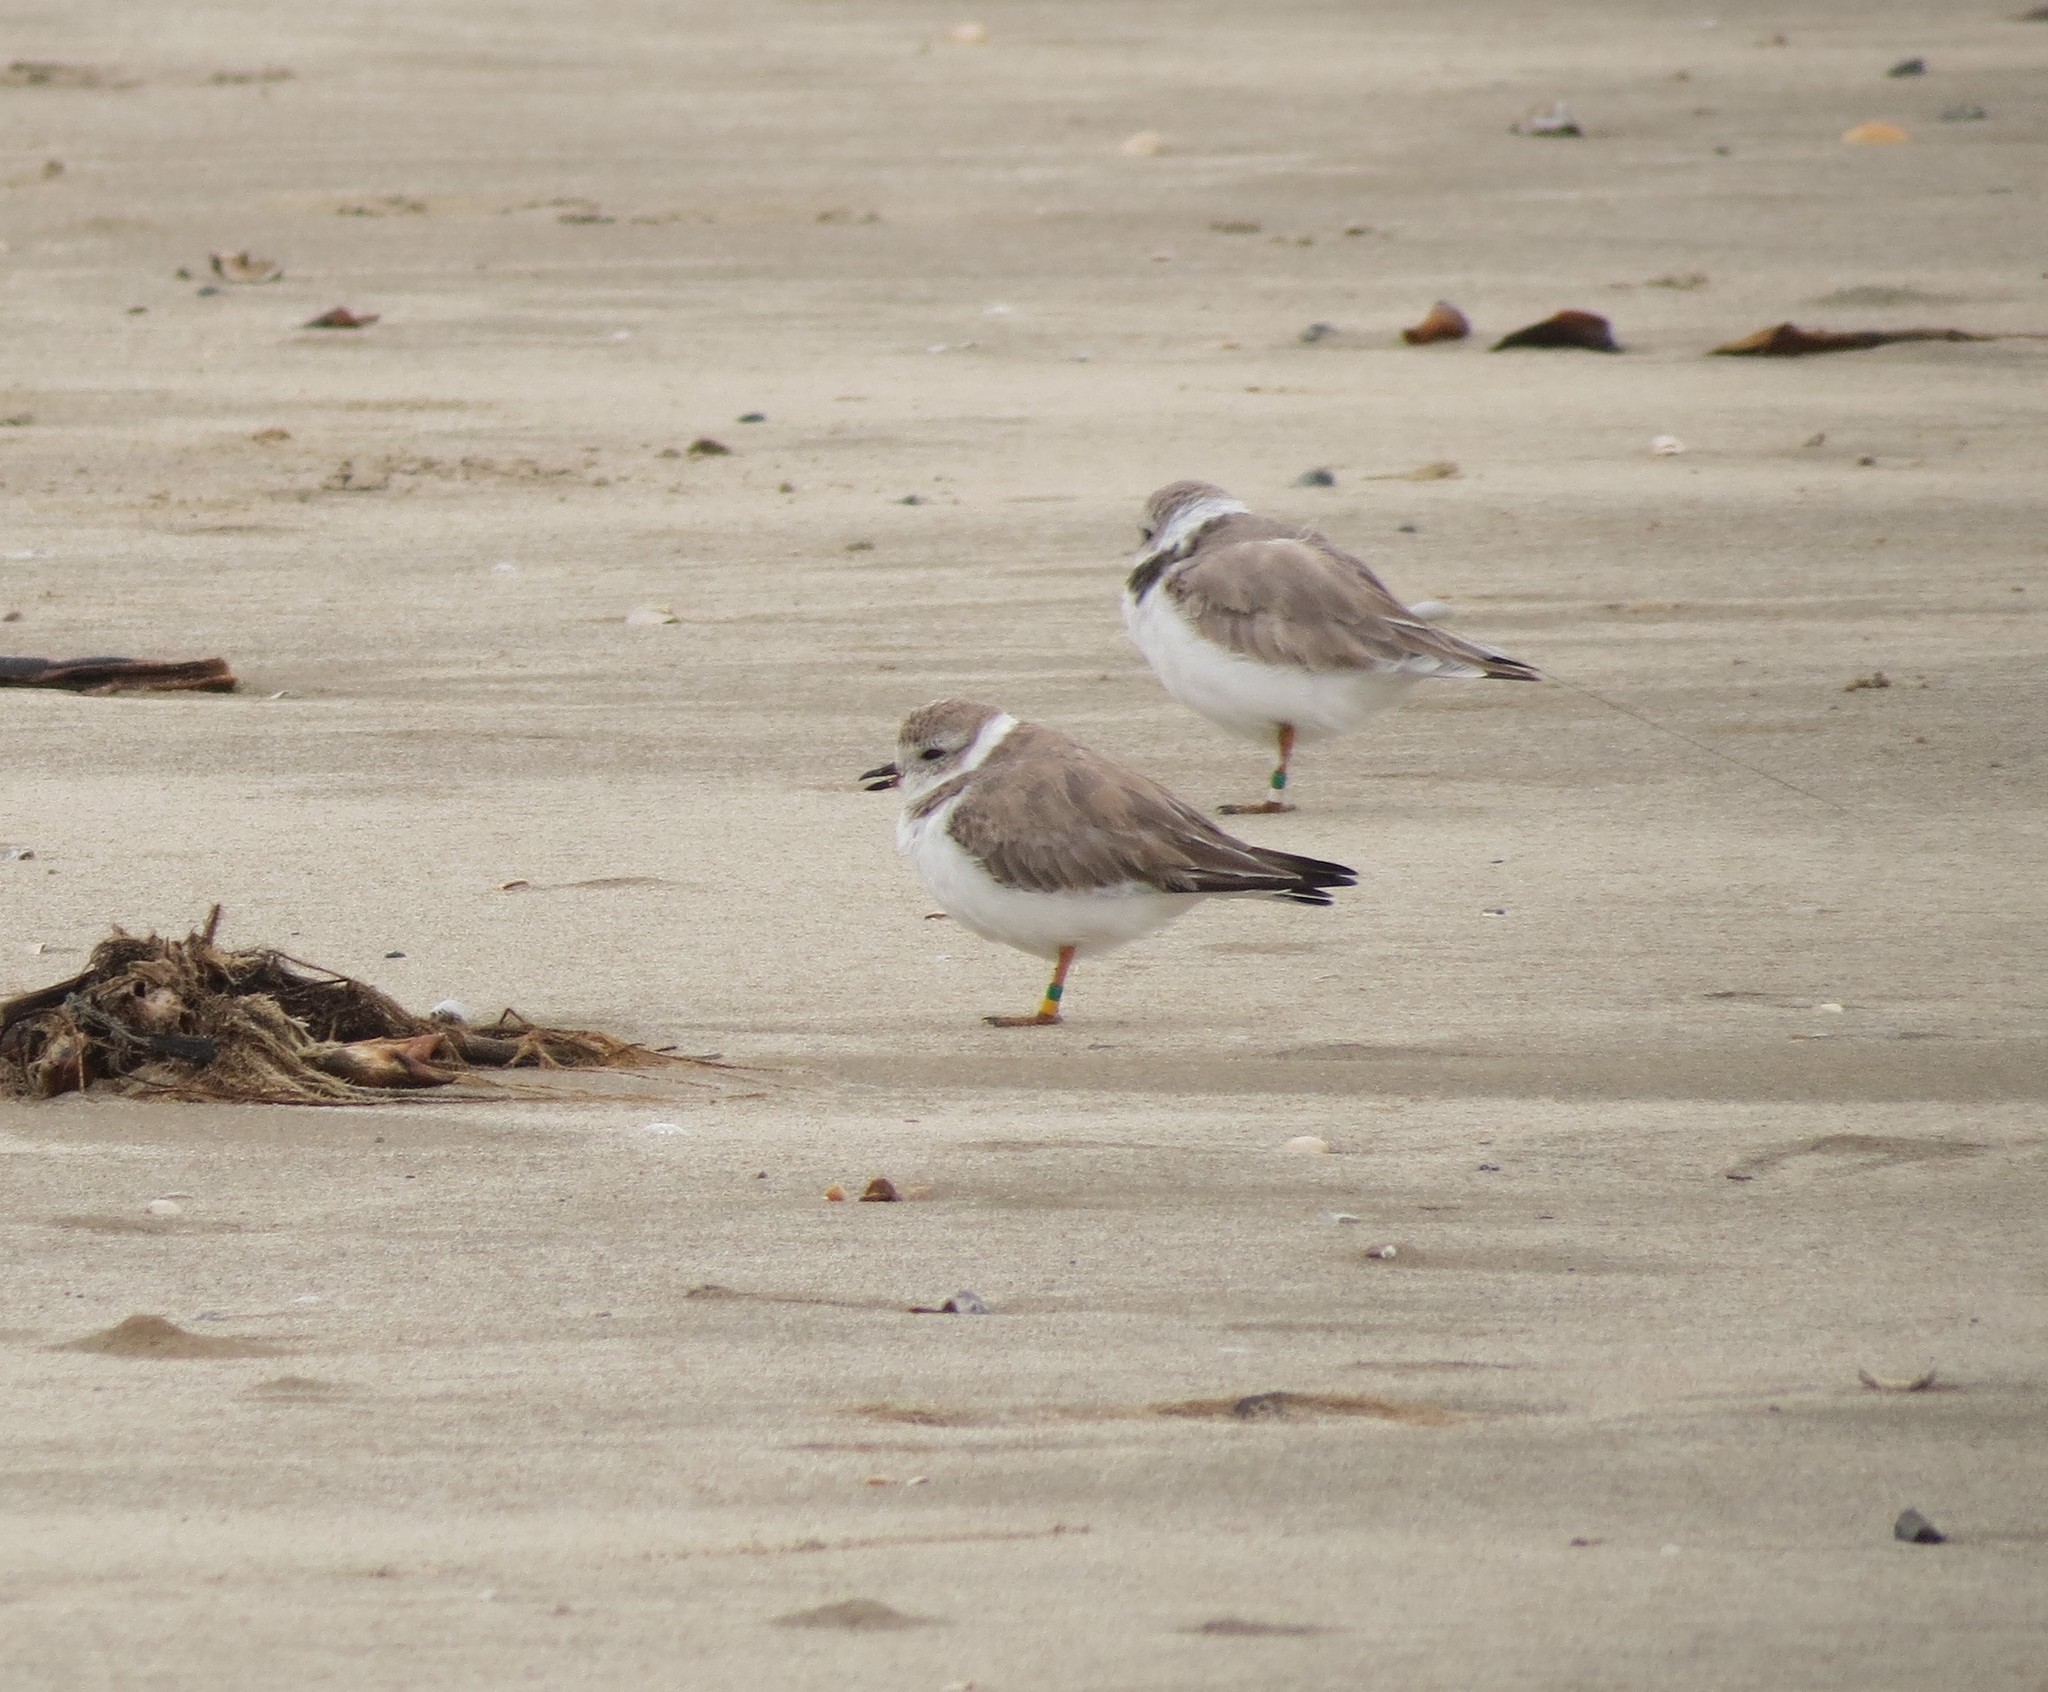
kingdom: Animalia
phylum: Chordata
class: Aves
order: Charadriiformes
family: Charadriidae
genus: Charadrius
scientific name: Charadrius melodus
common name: Piping plover
